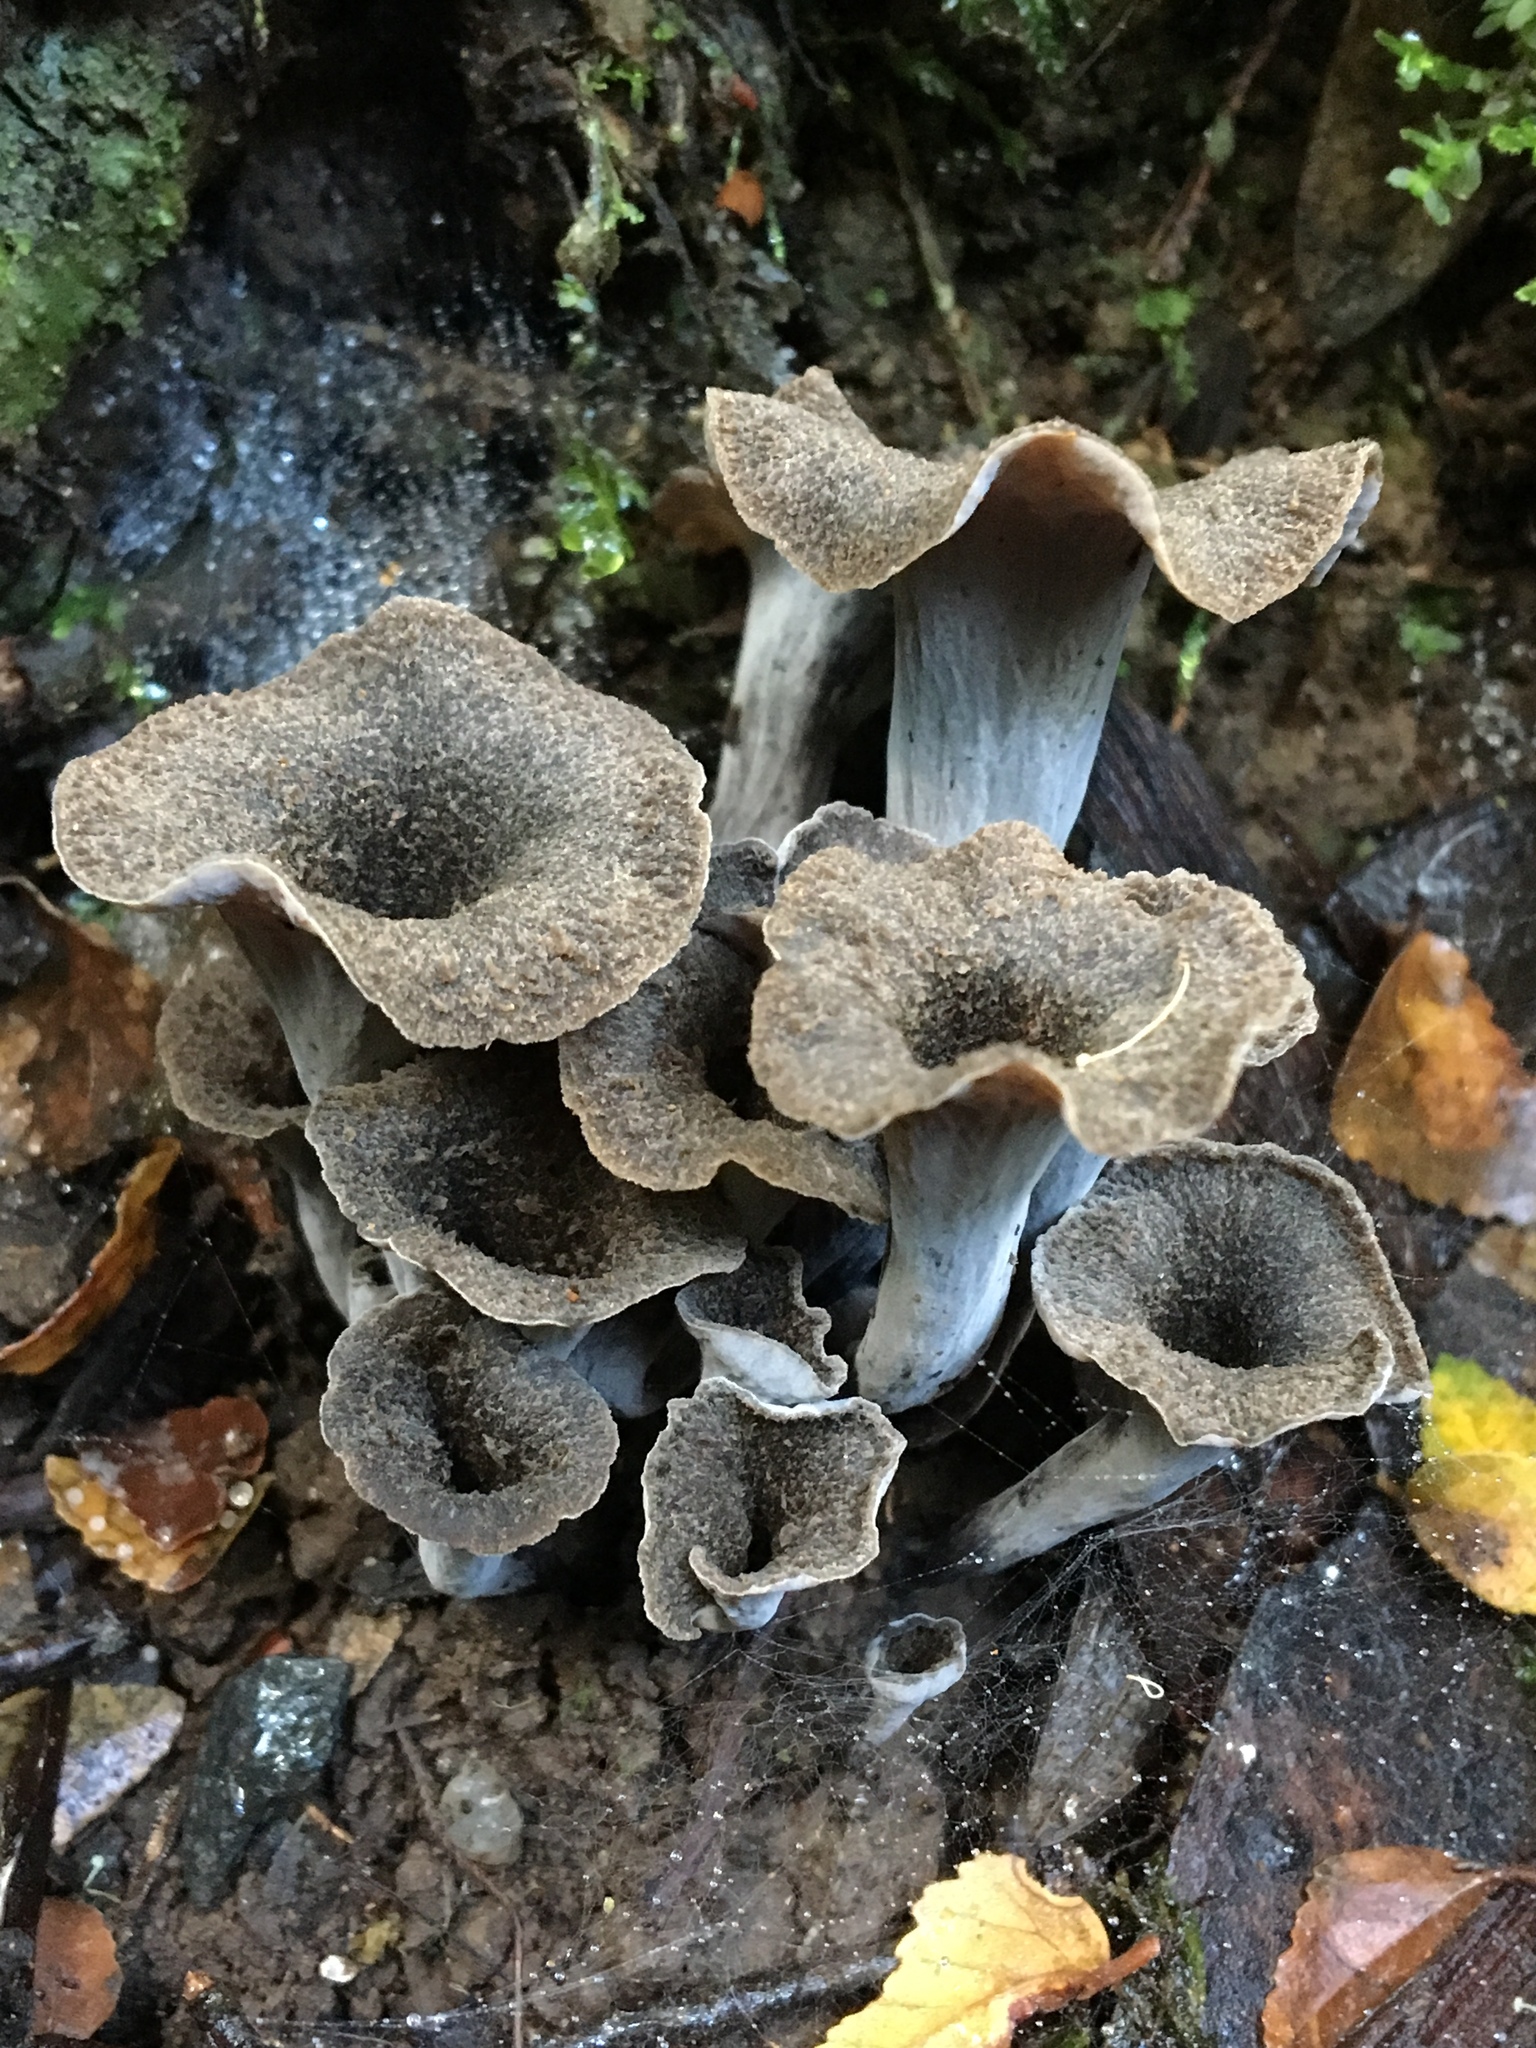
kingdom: Fungi
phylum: Basidiomycota
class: Agaricomycetes
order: Cantharellales
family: Hydnaceae
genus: Craterellus
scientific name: Craterellus cornucopioides
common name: Horn of plenty
